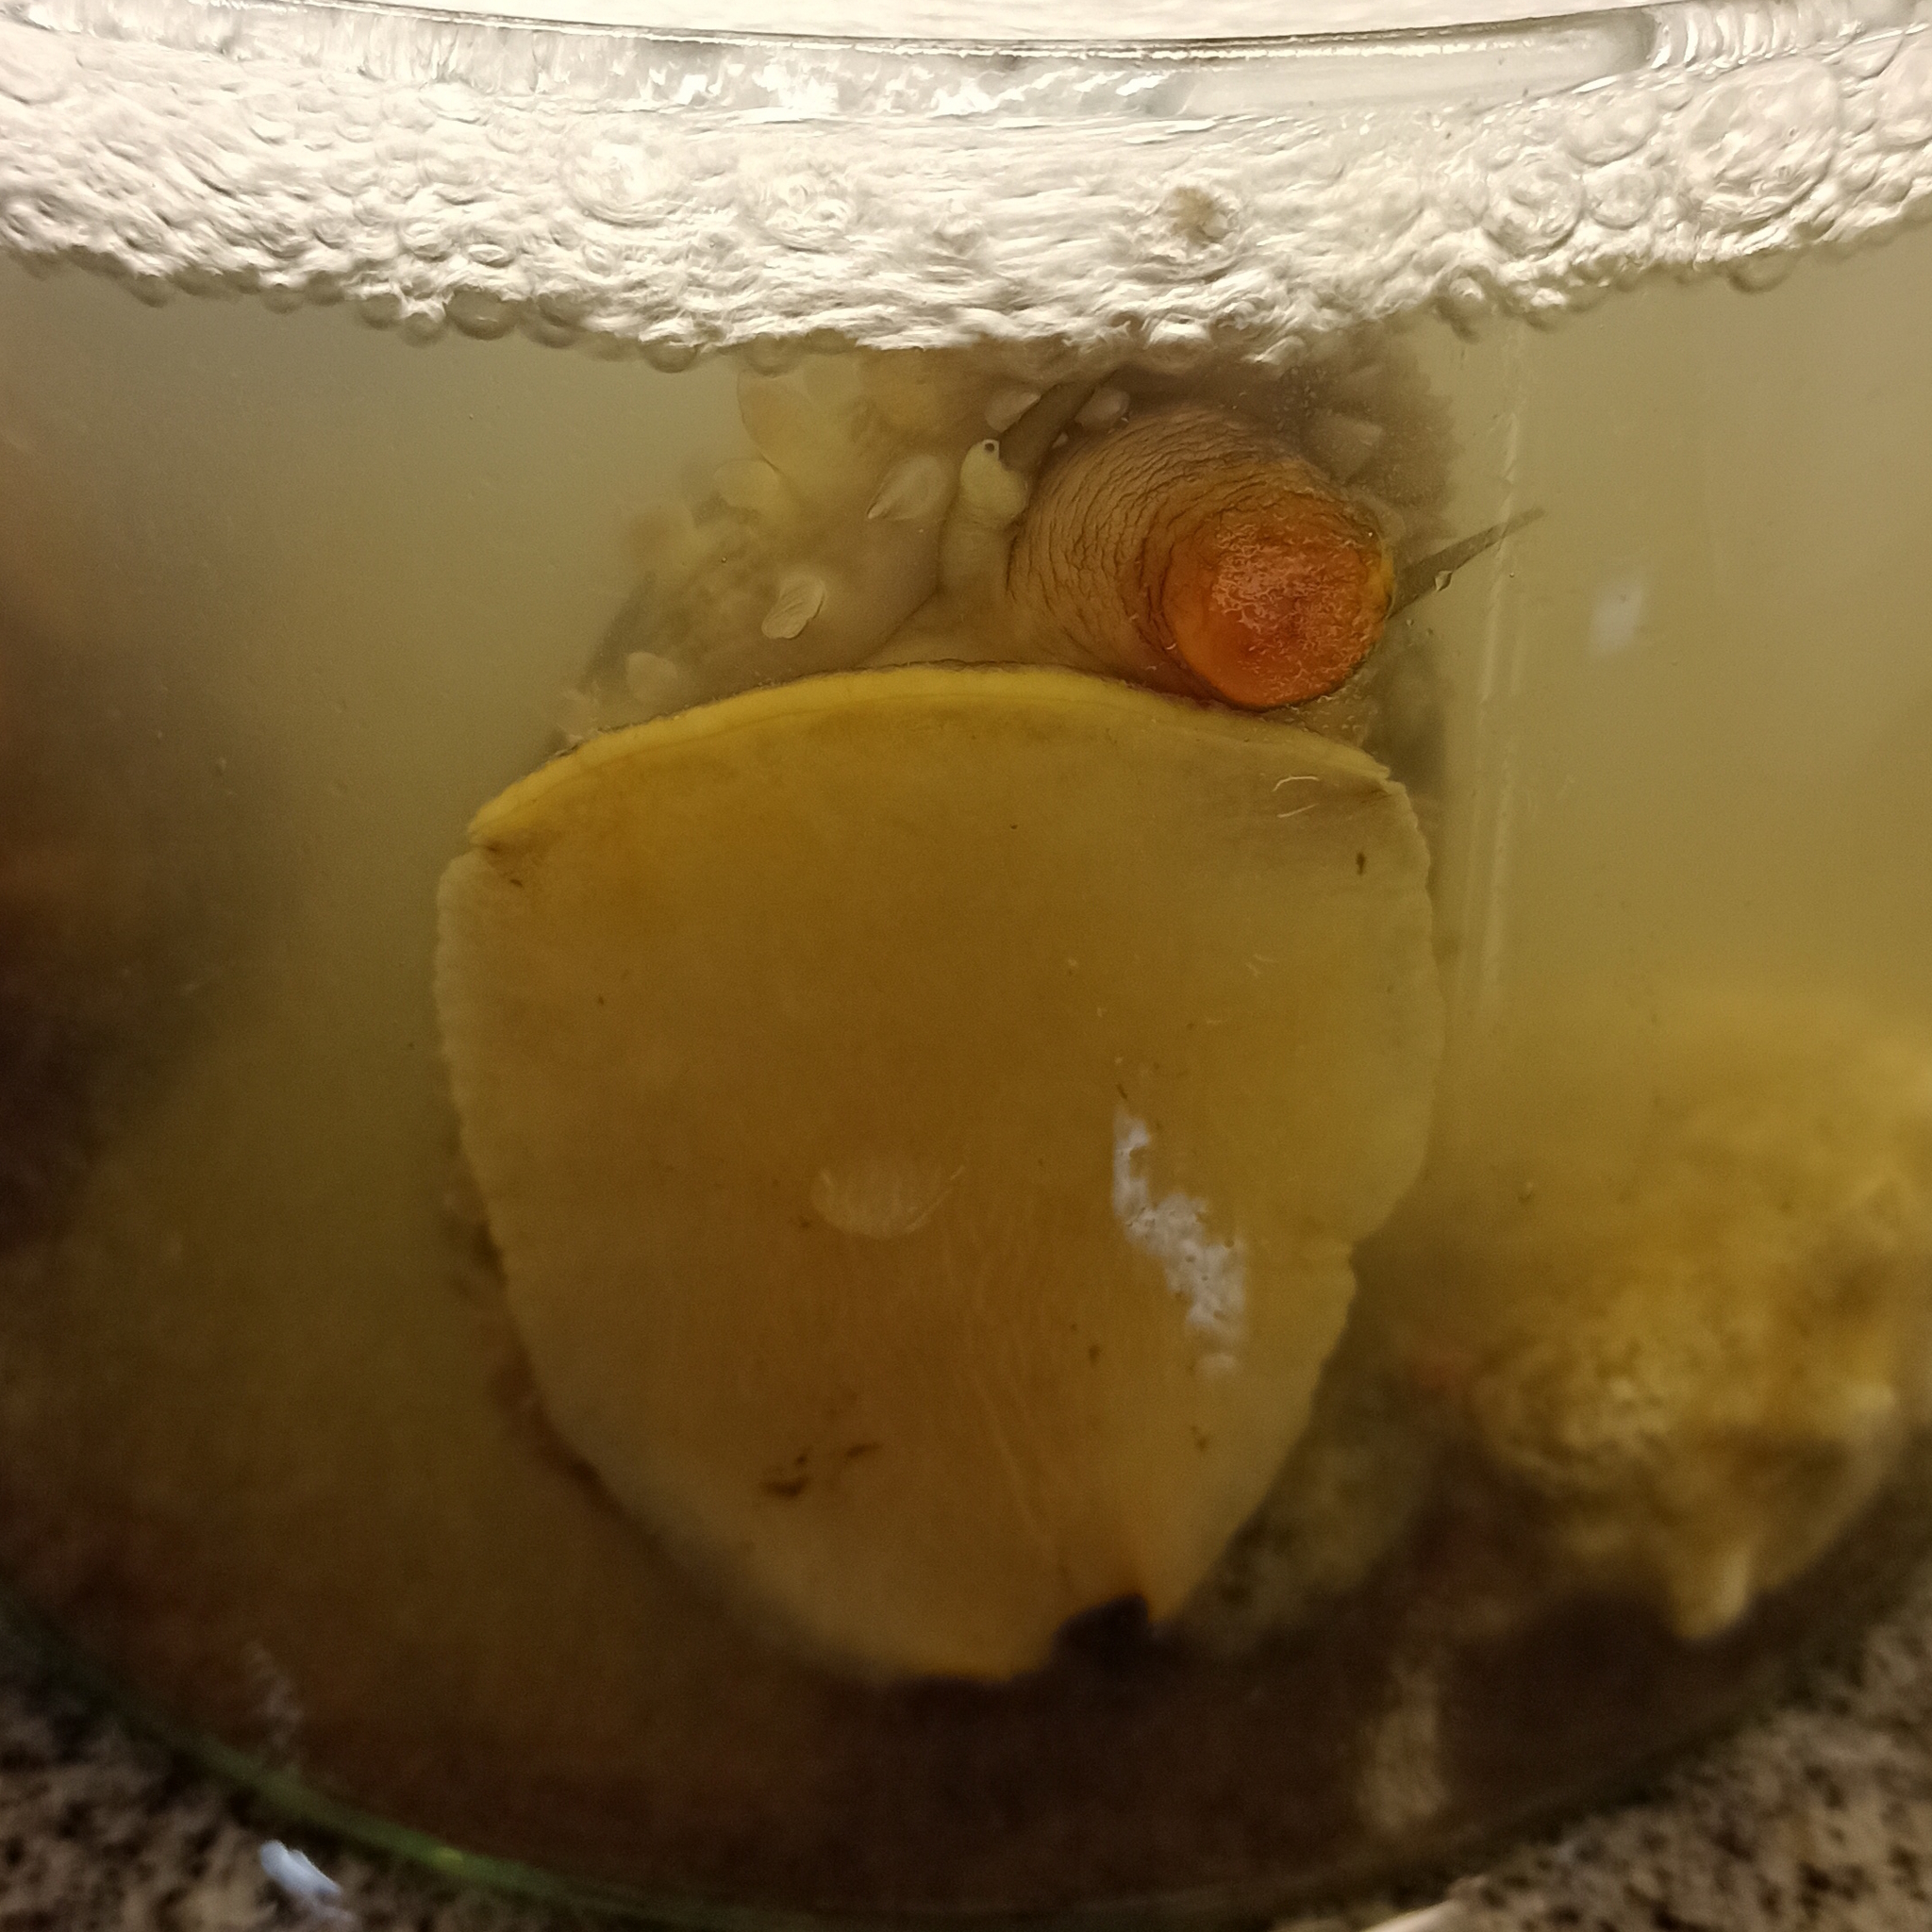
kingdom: Animalia
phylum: Mollusca
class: Gastropoda
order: Littorinimorpha
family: Cypraeidae
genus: Macrocypraea
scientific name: Macrocypraea zebra
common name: Measled cowrie
